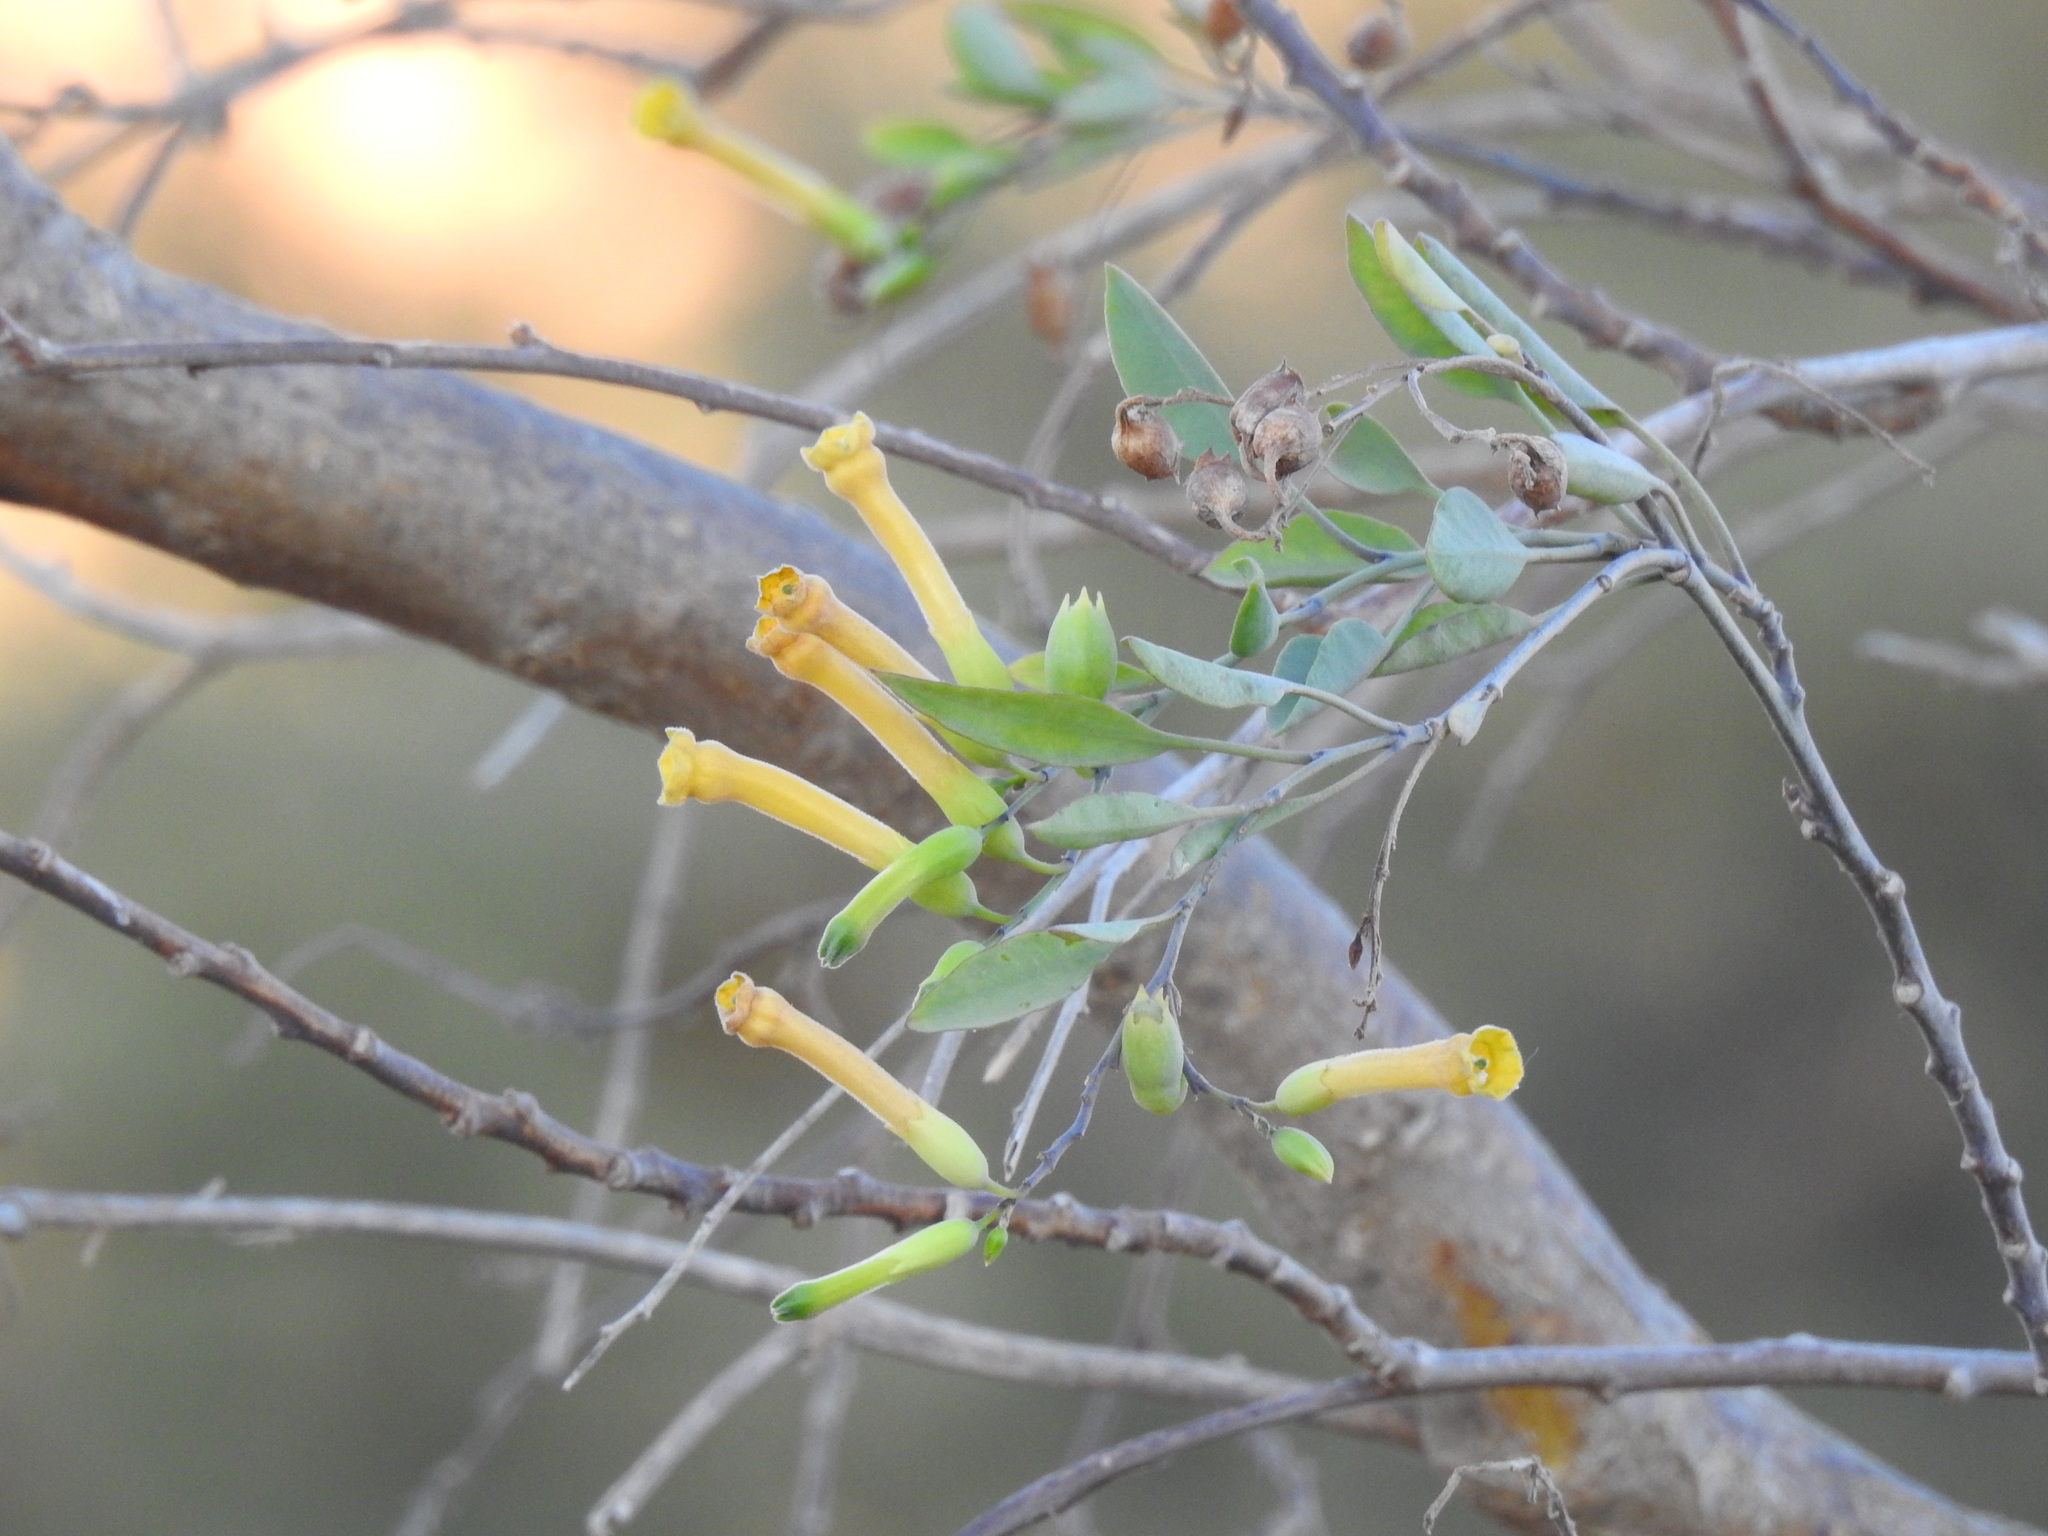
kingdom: Plantae
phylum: Tracheophyta
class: Magnoliopsida
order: Solanales
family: Solanaceae
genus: Nicotiana
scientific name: Nicotiana glauca
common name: Tree tobacco
